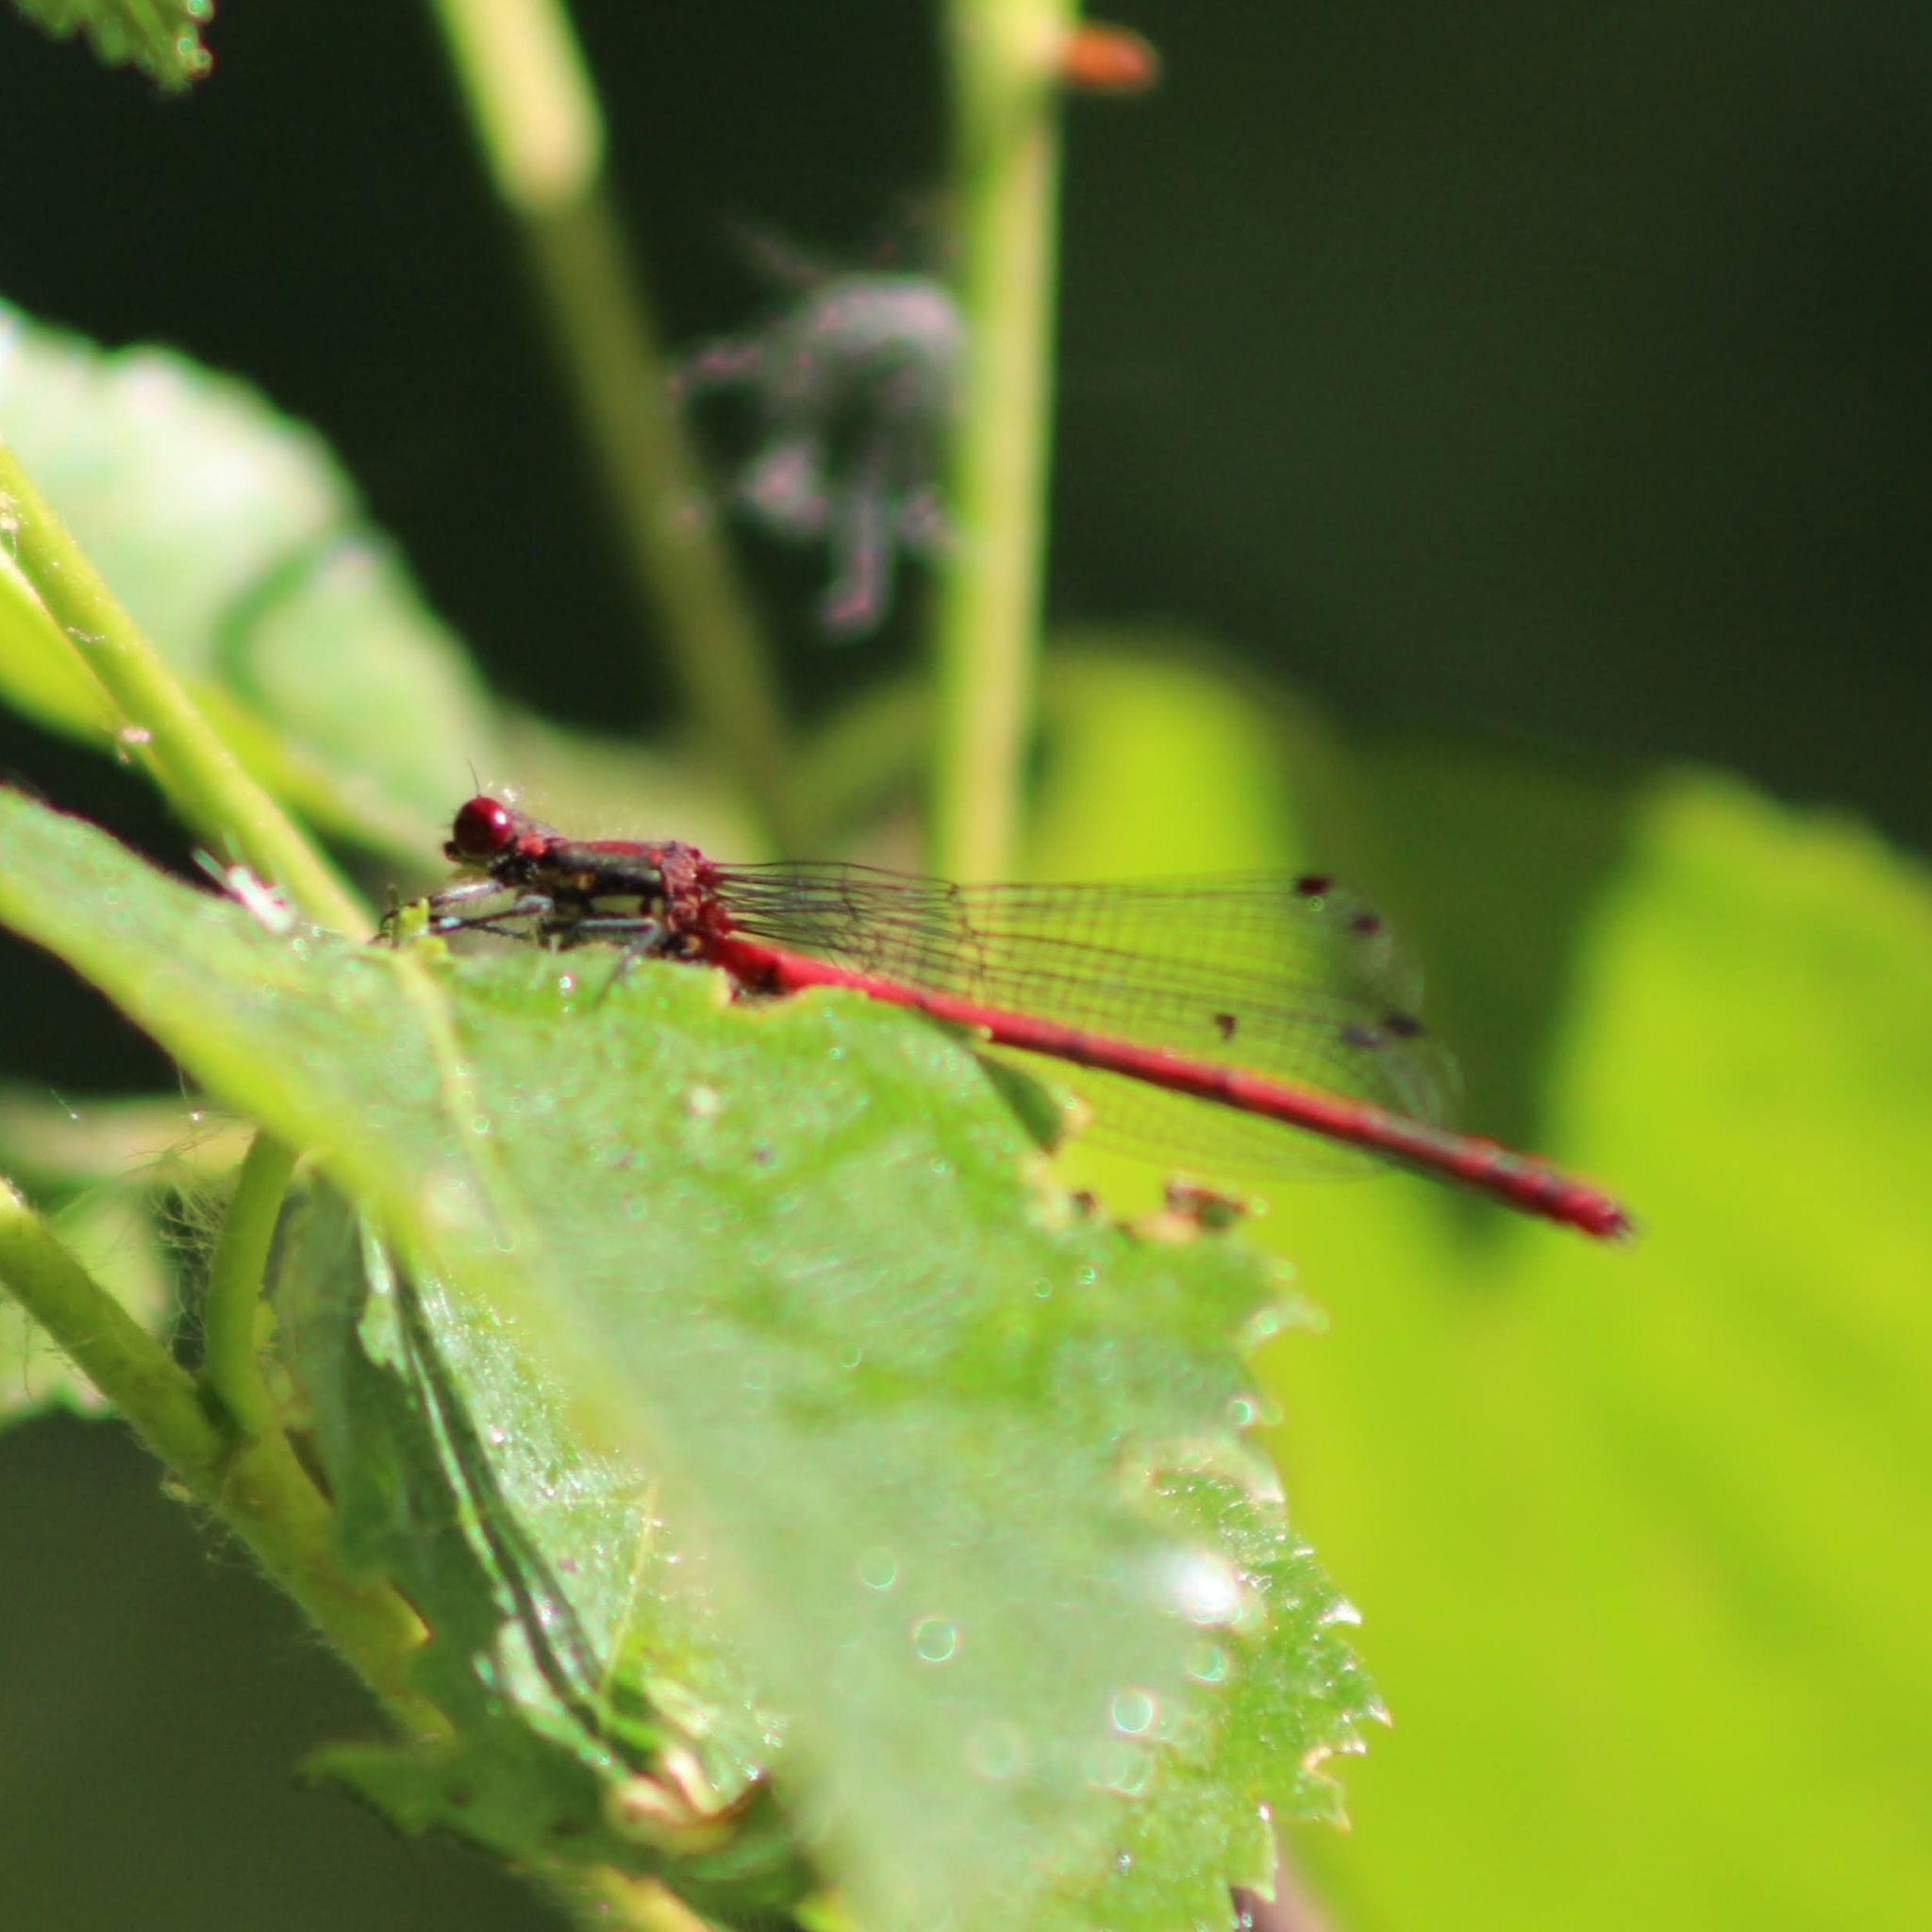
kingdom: Animalia
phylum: Arthropoda
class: Insecta
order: Odonata
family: Coenagrionidae
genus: Pyrrhosoma
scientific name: Pyrrhosoma nymphula
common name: Large red damsel
